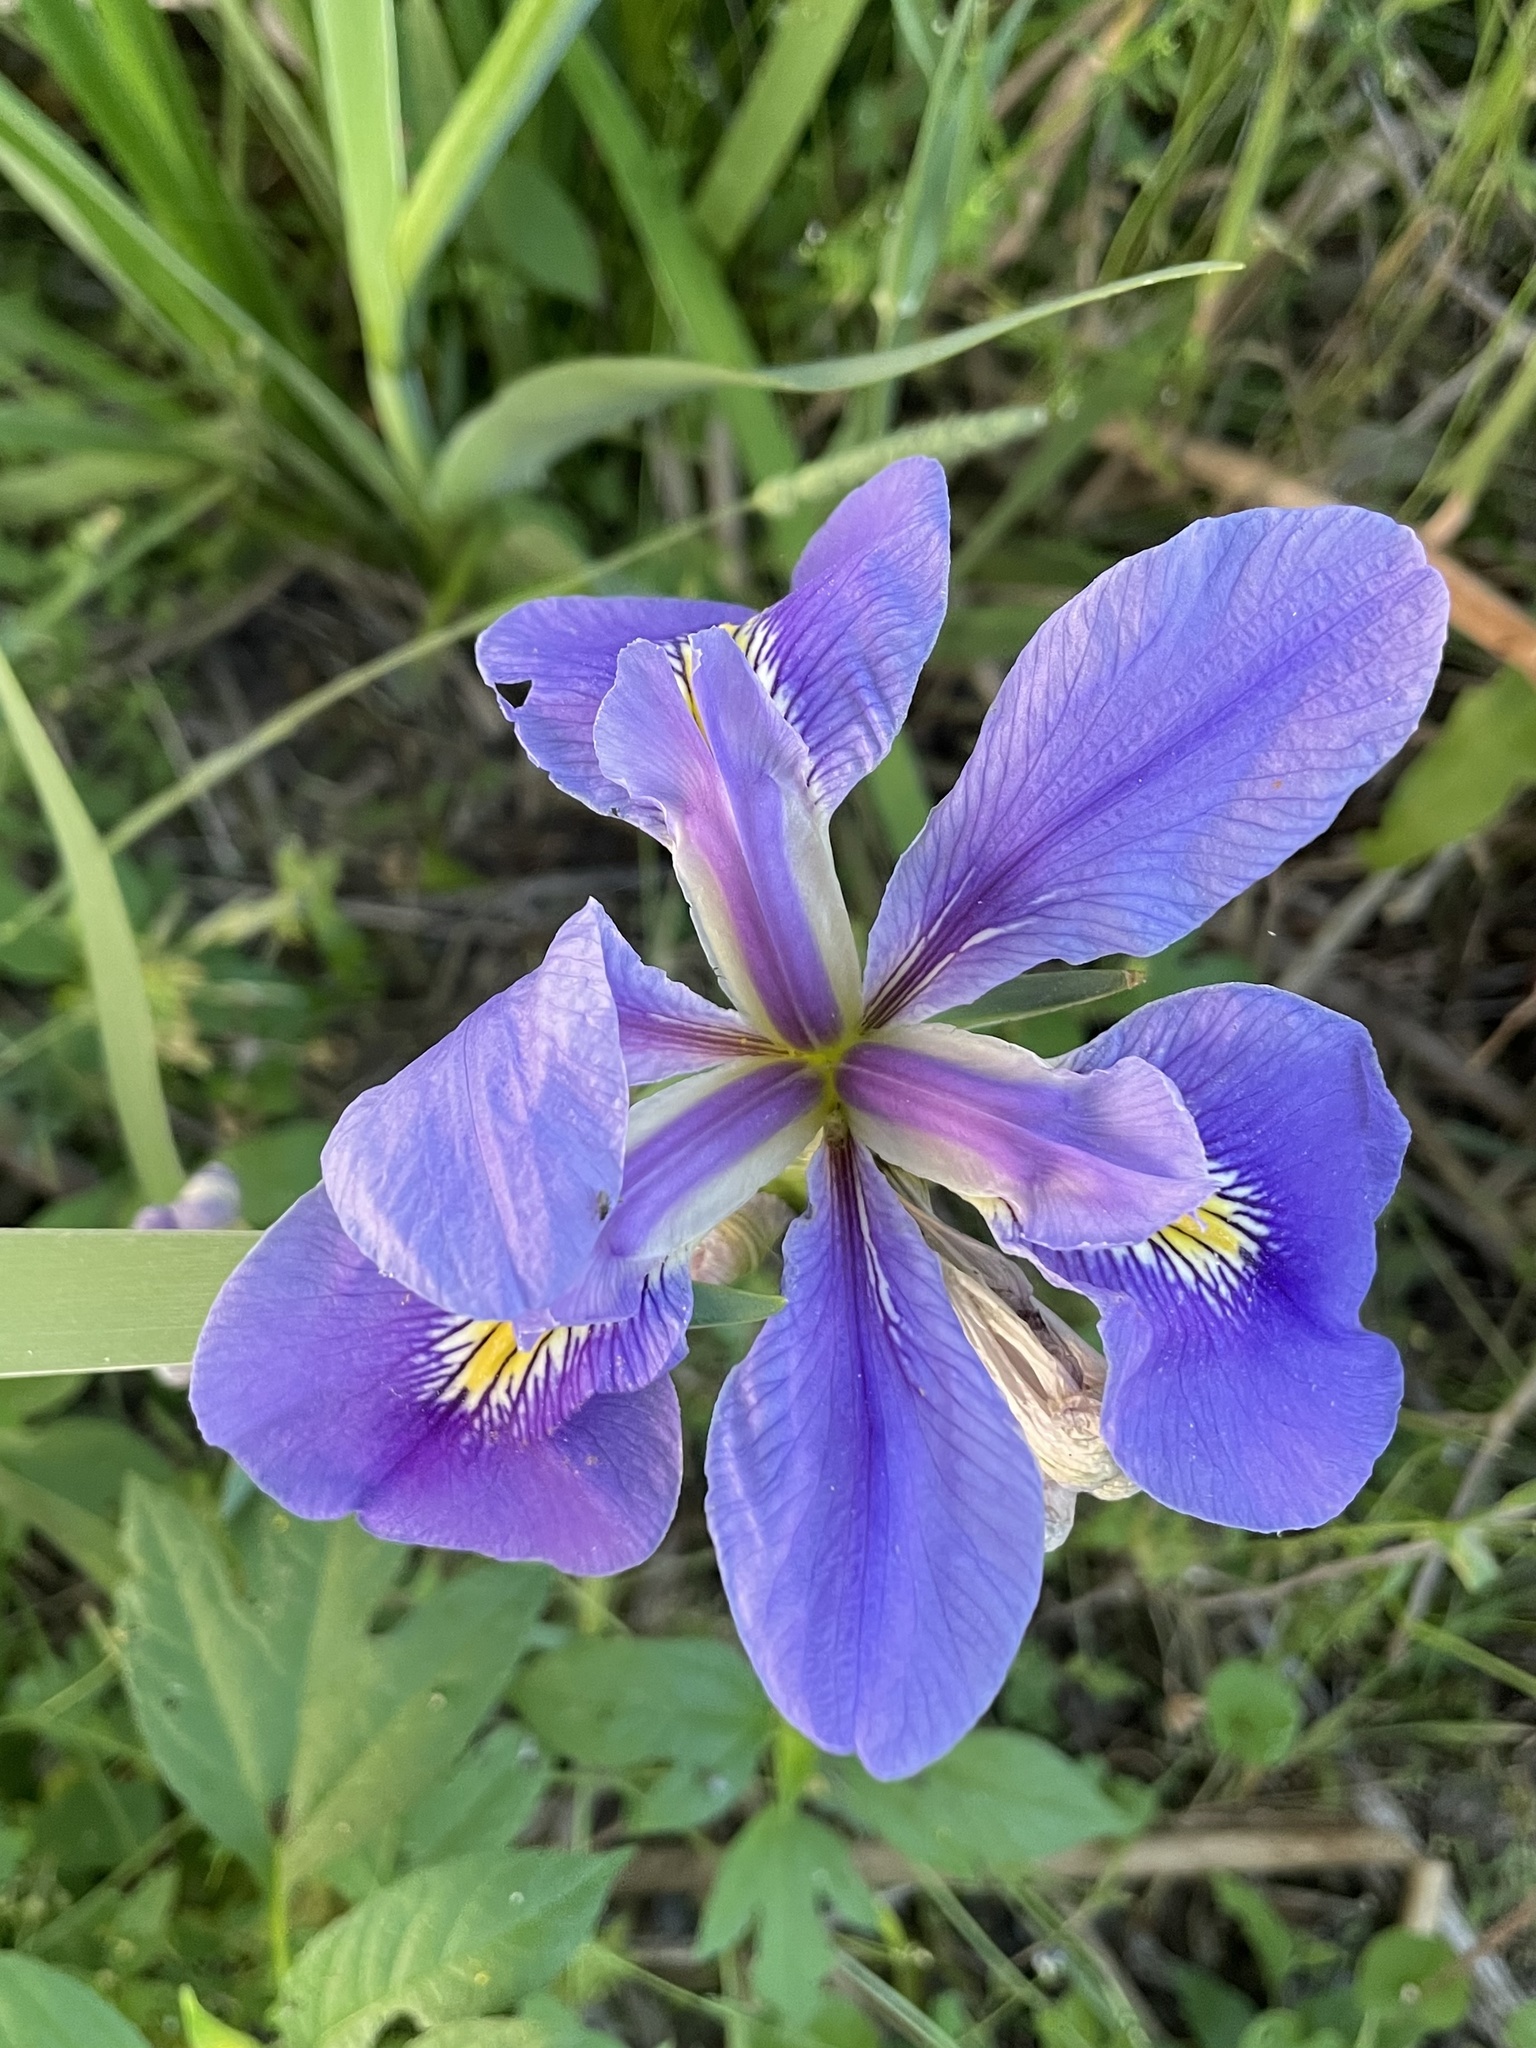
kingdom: Plantae
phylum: Tracheophyta
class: Liliopsida
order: Asparagales
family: Iridaceae
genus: Iris
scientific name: Iris brevicaulis
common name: Zigzag iris
